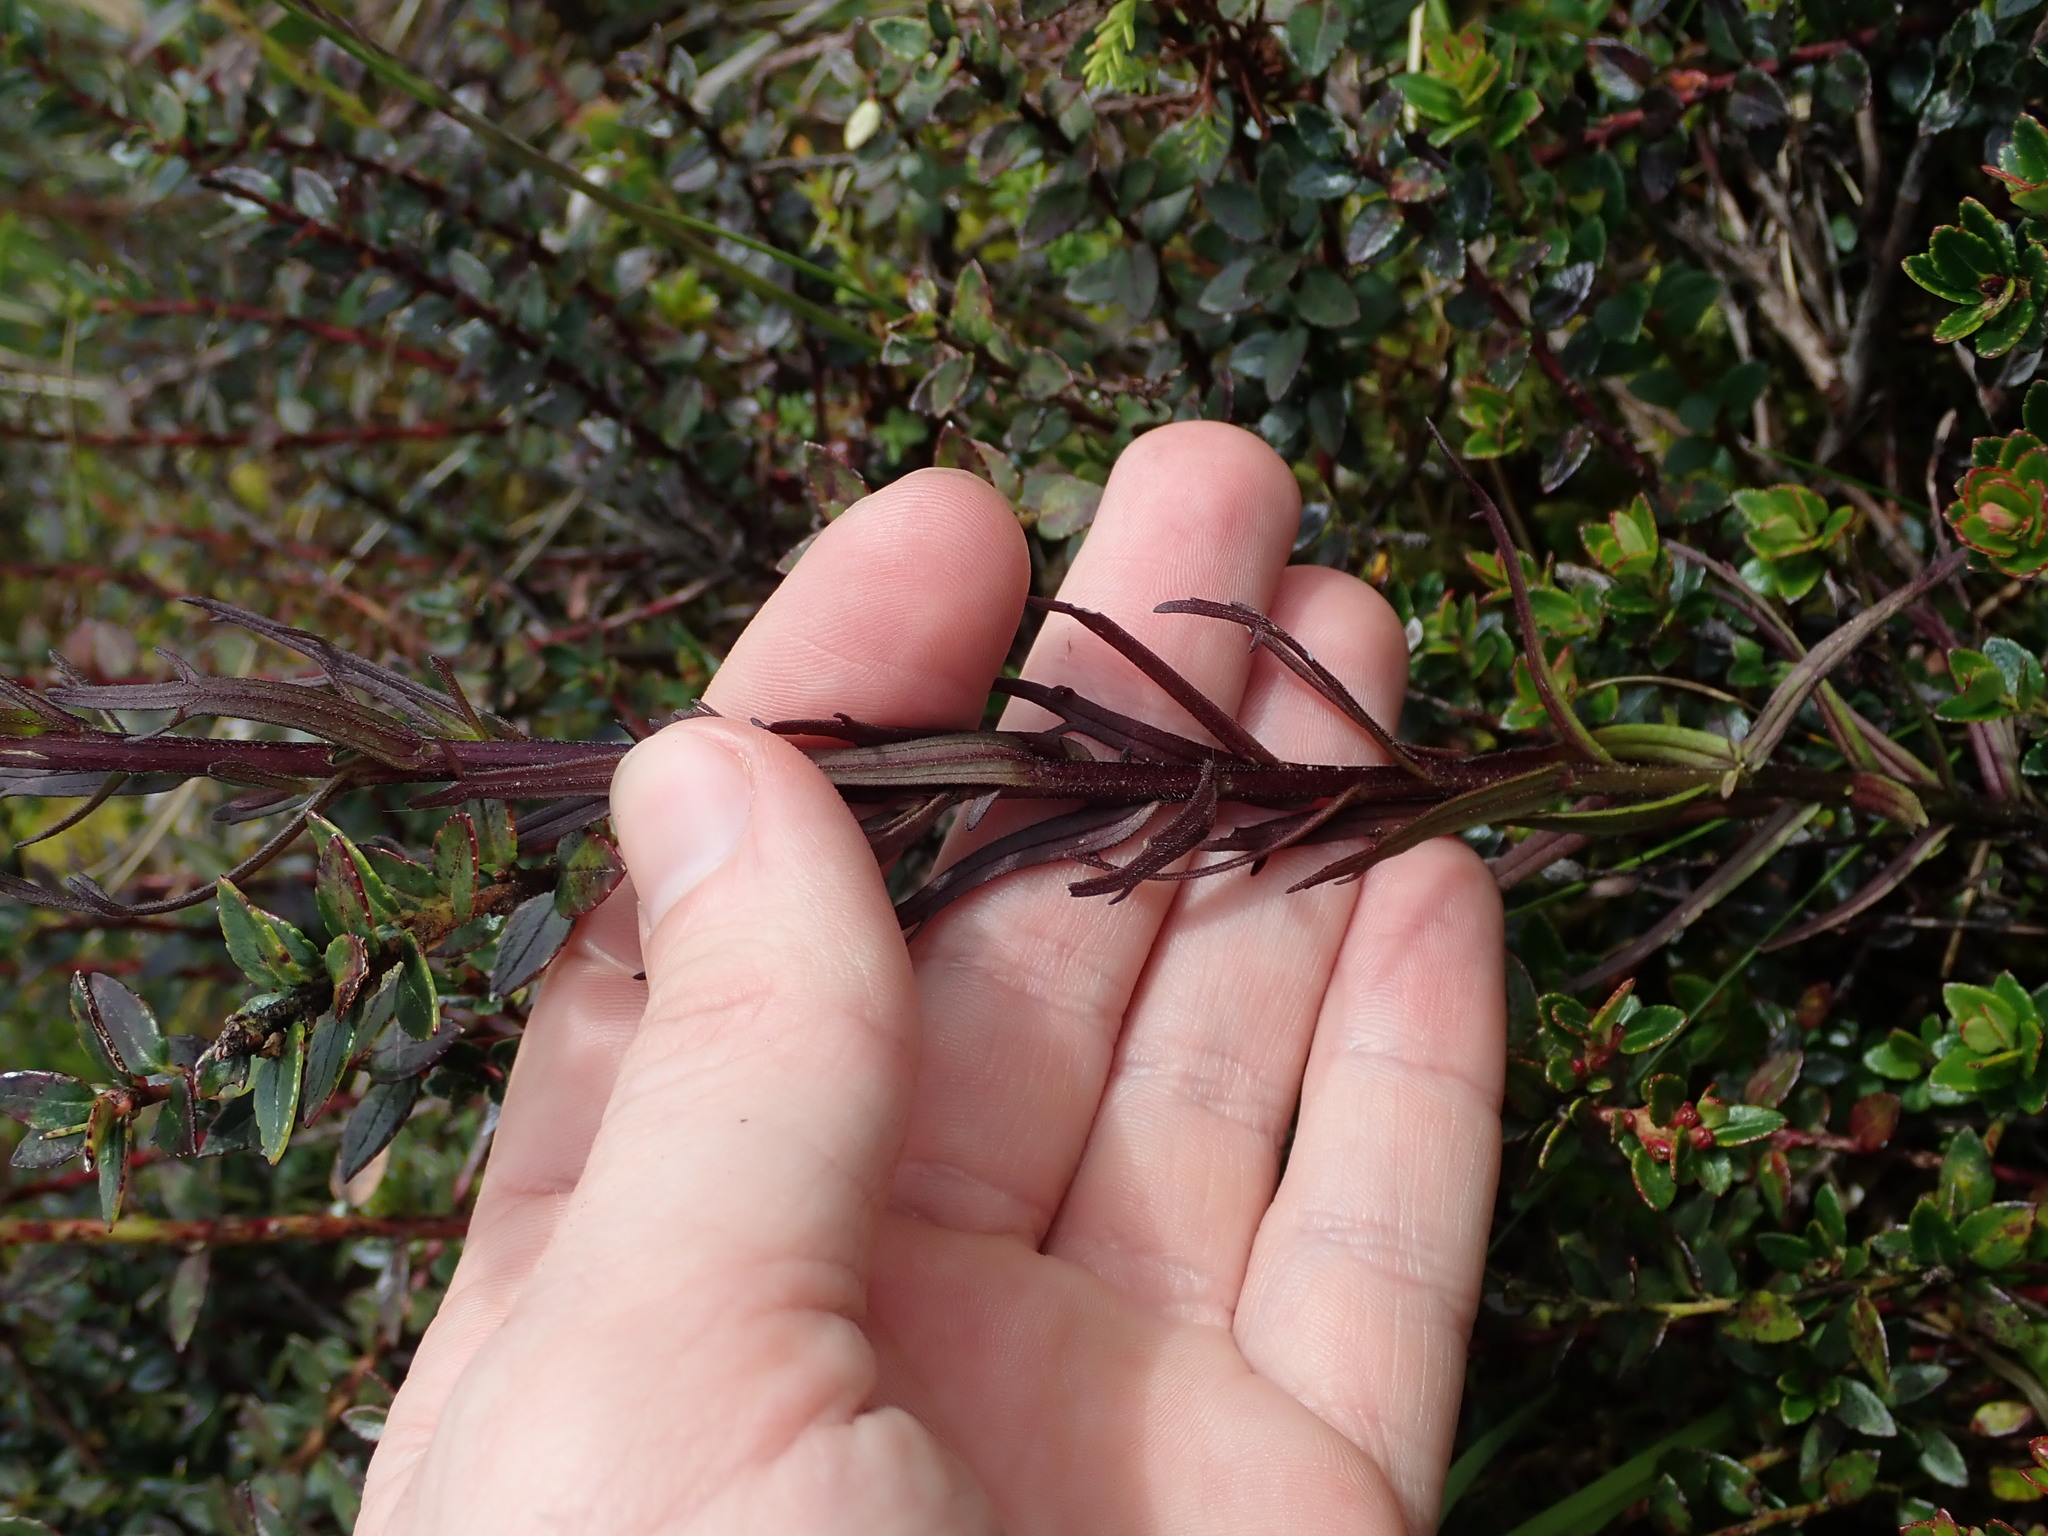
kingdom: Plantae
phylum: Tracheophyta
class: Magnoliopsida
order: Lamiales
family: Orobanchaceae
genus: Castilleja
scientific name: Castilleja fissifolia
